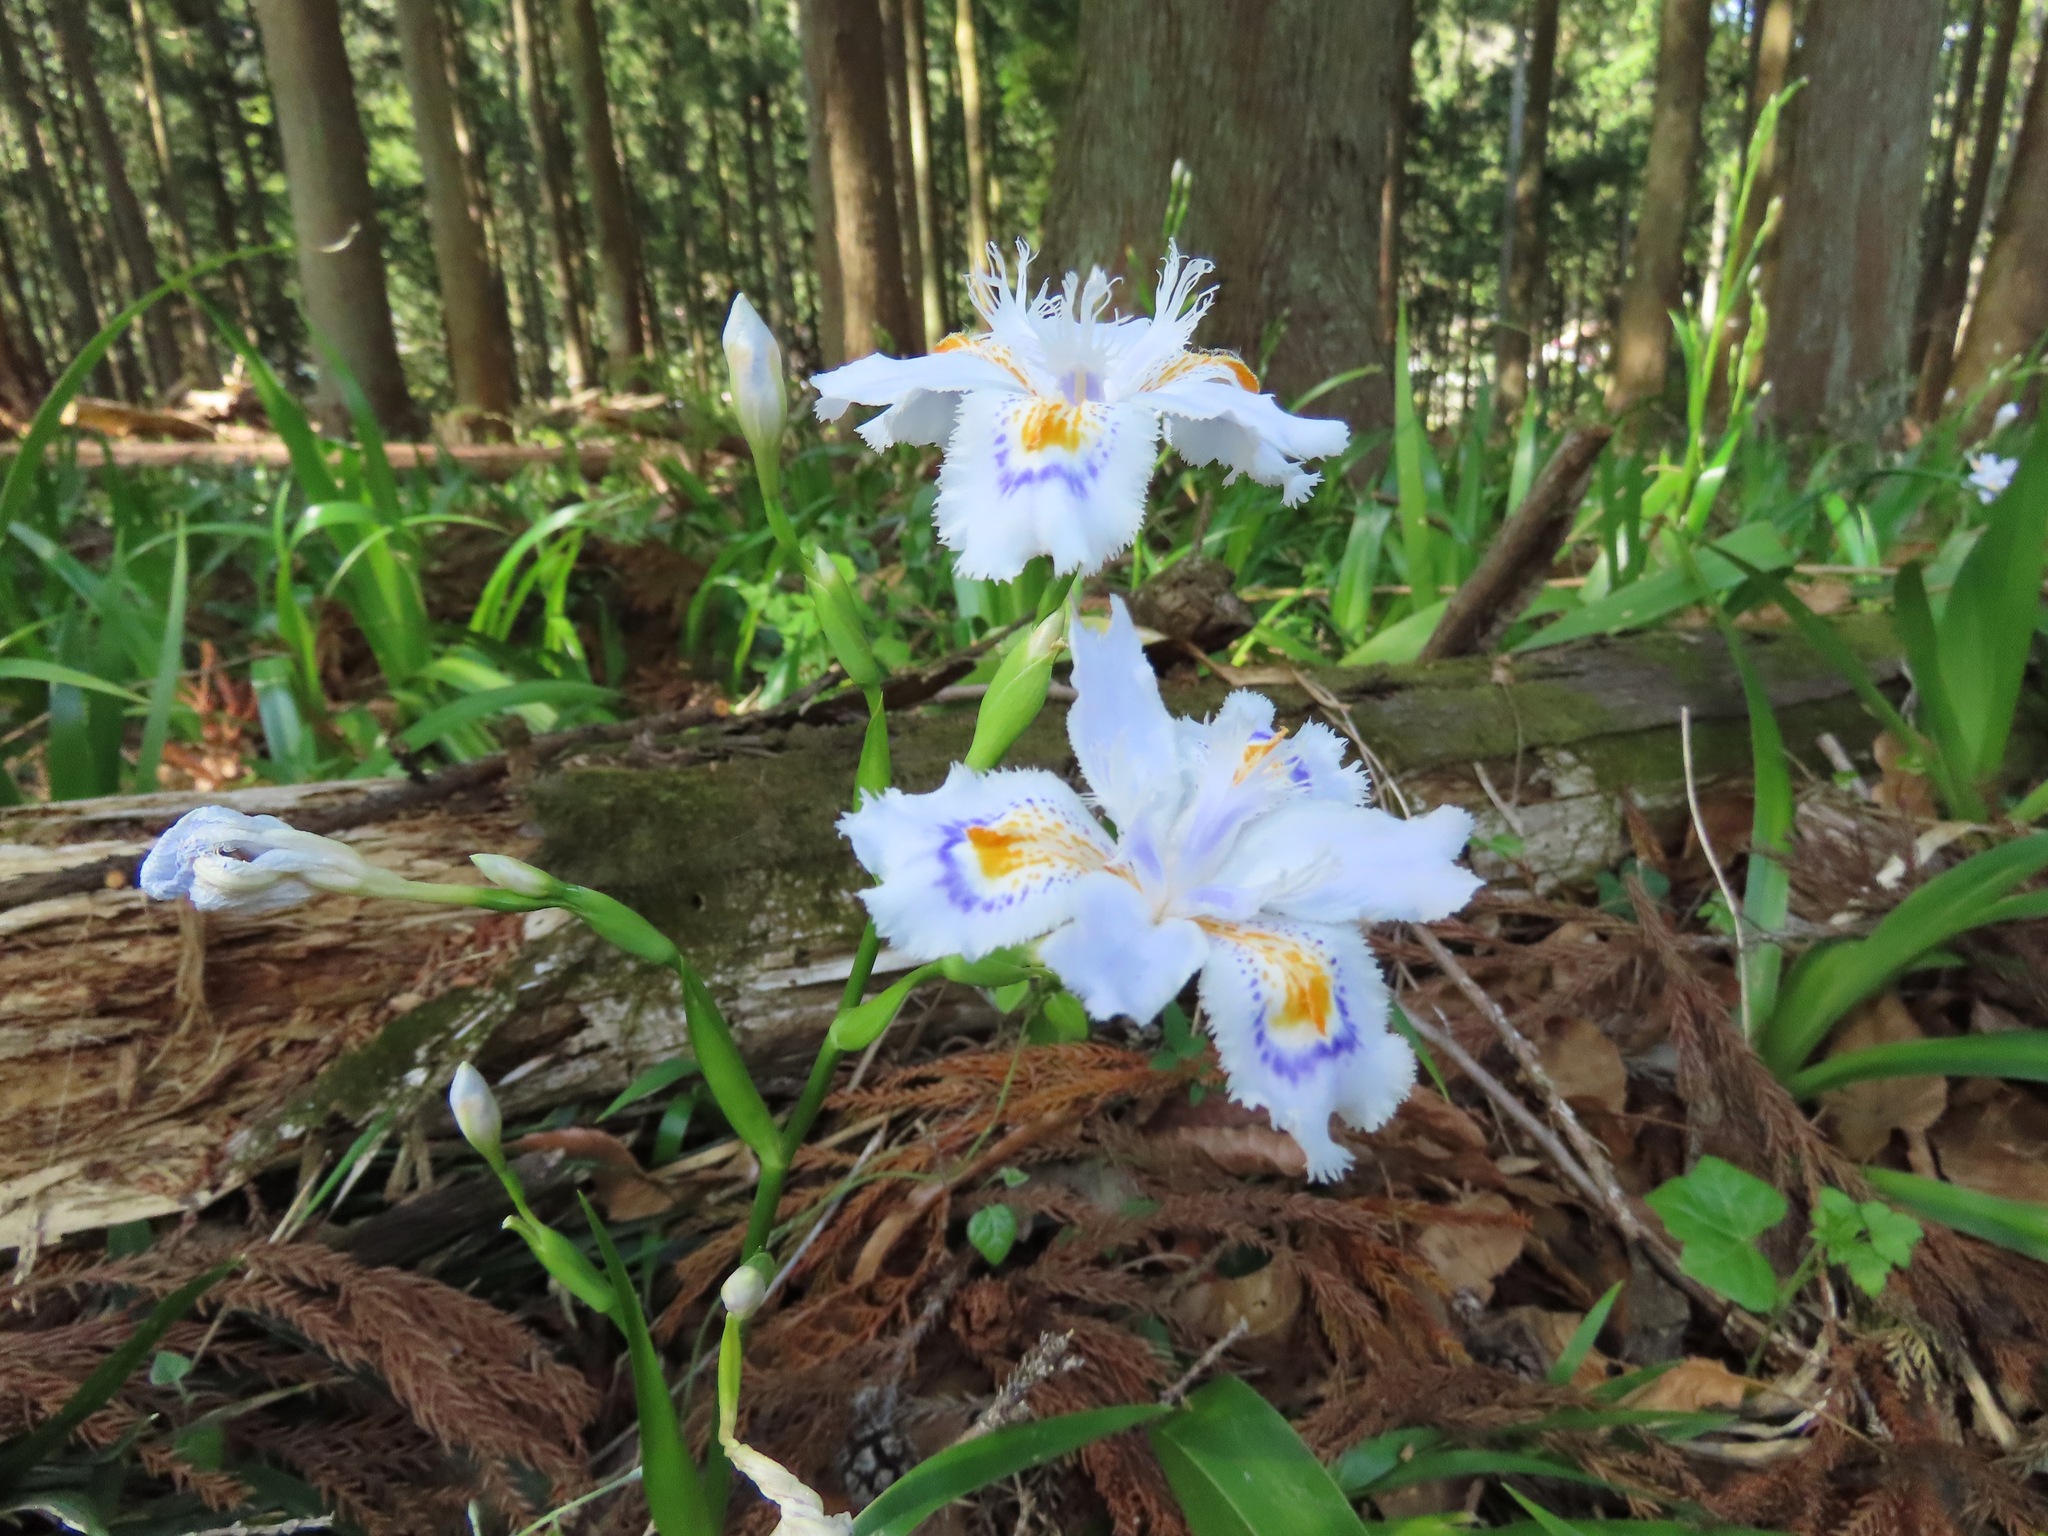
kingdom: Plantae
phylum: Tracheophyta
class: Liliopsida
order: Asparagales
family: Iridaceae
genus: Iris
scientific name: Iris japonica
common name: Butterfly-flower
